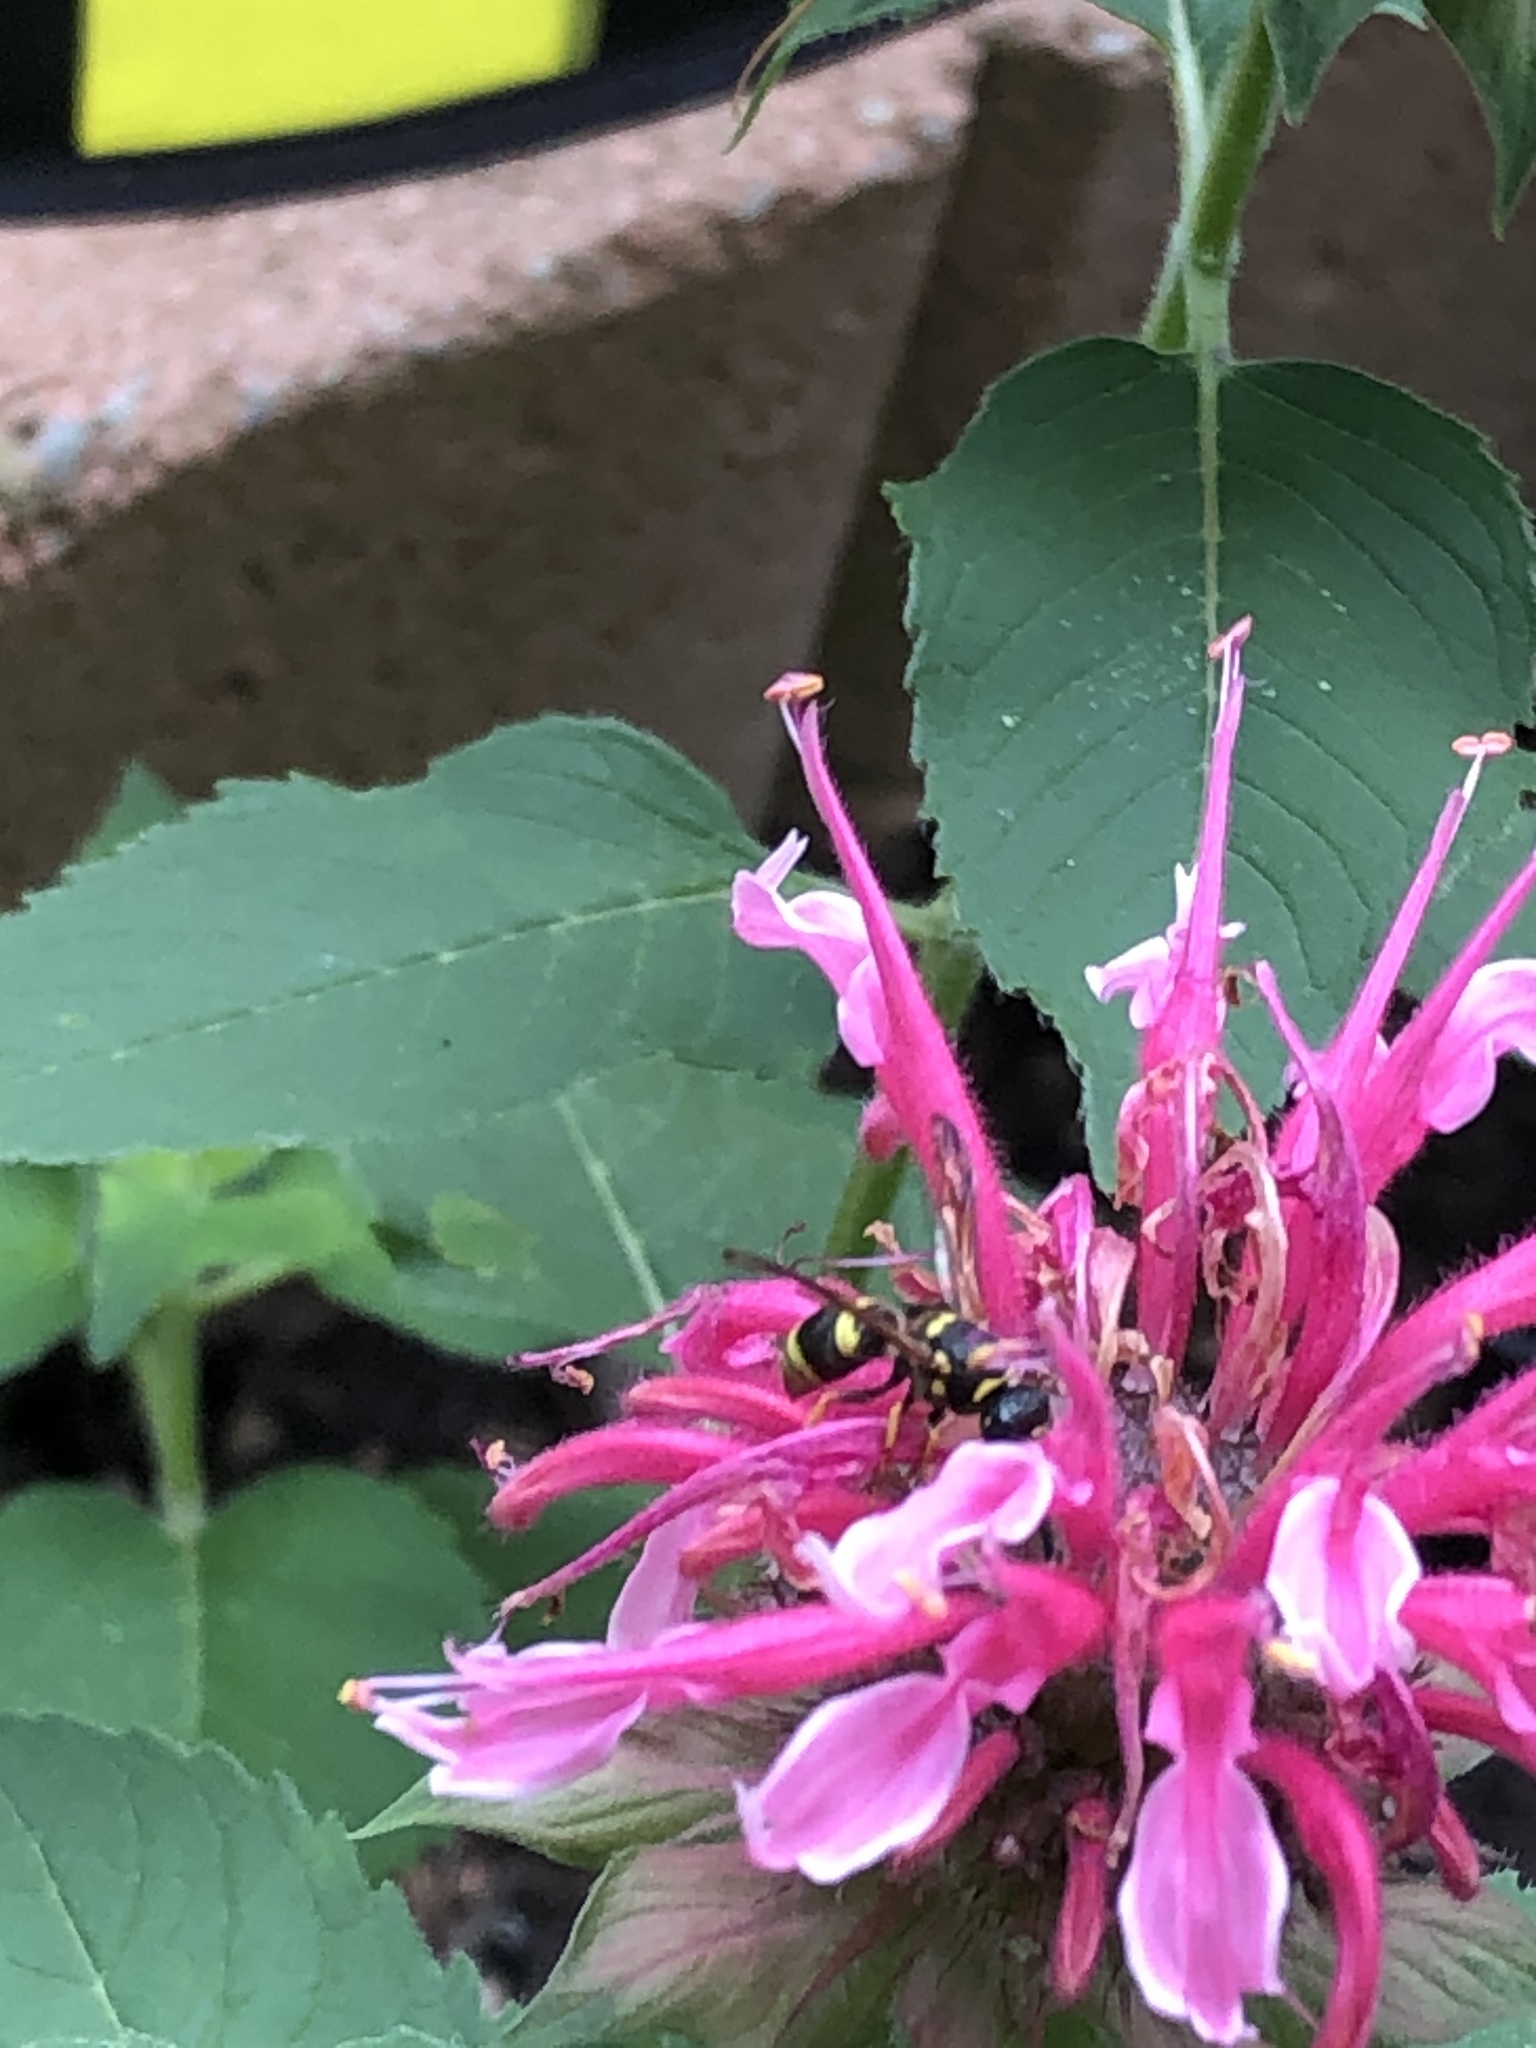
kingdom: Animalia
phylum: Arthropoda
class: Insecta
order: Hymenoptera
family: Vespidae
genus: Ancistrocerus
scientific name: Ancistrocerus waldenii
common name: Walden’s potter wasp
